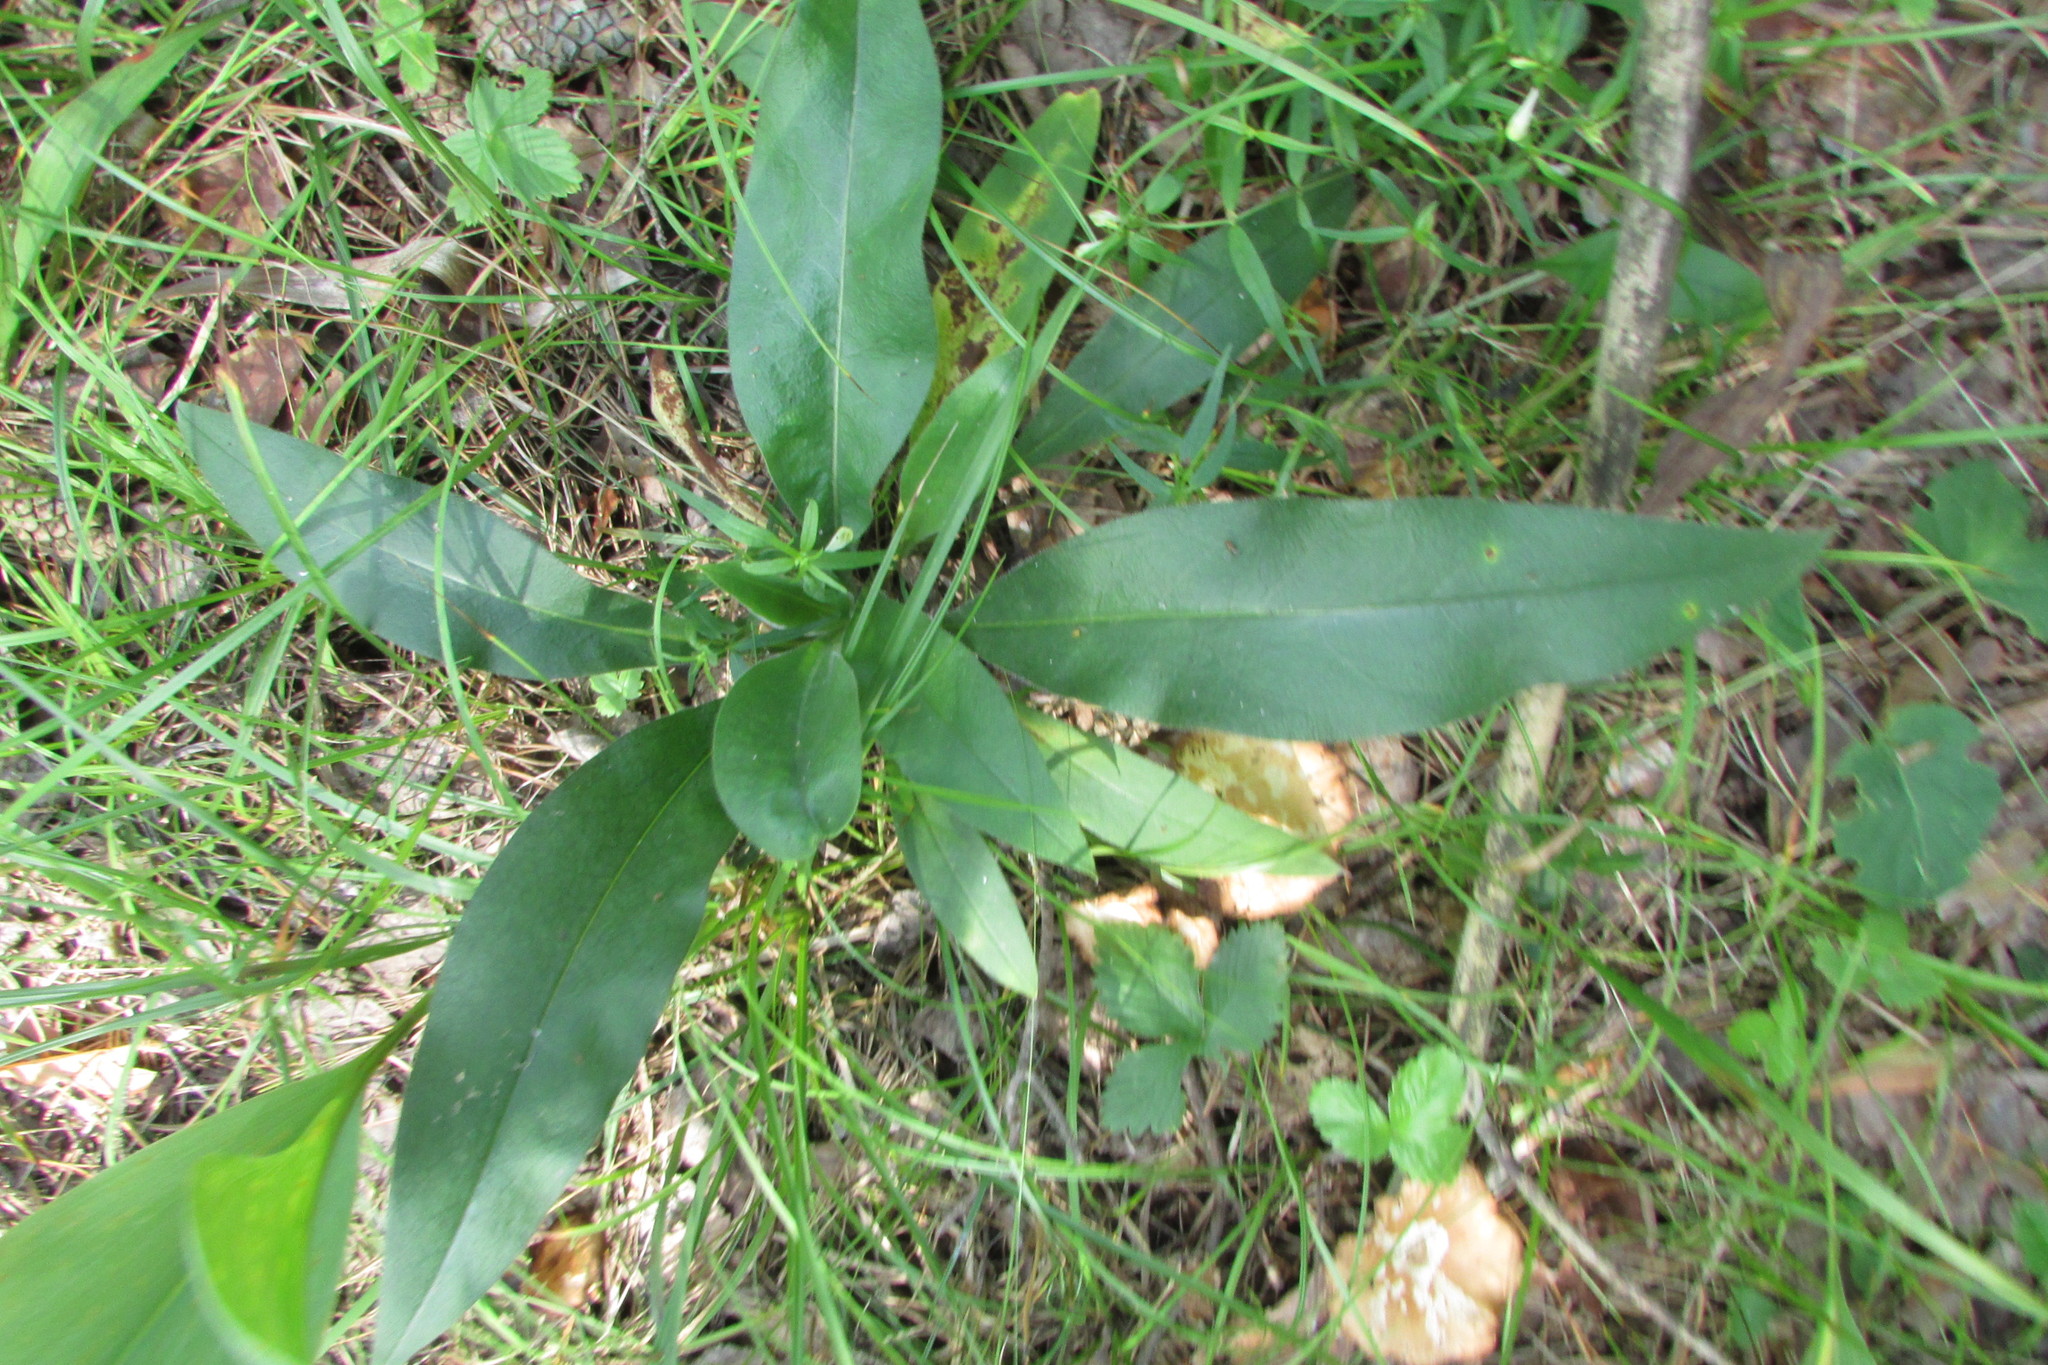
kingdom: Plantae
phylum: Tracheophyta
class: Magnoliopsida
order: Boraginales
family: Boraginaceae
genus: Pulmonaria
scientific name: Pulmonaria angustifolia
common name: Blue cowslip
